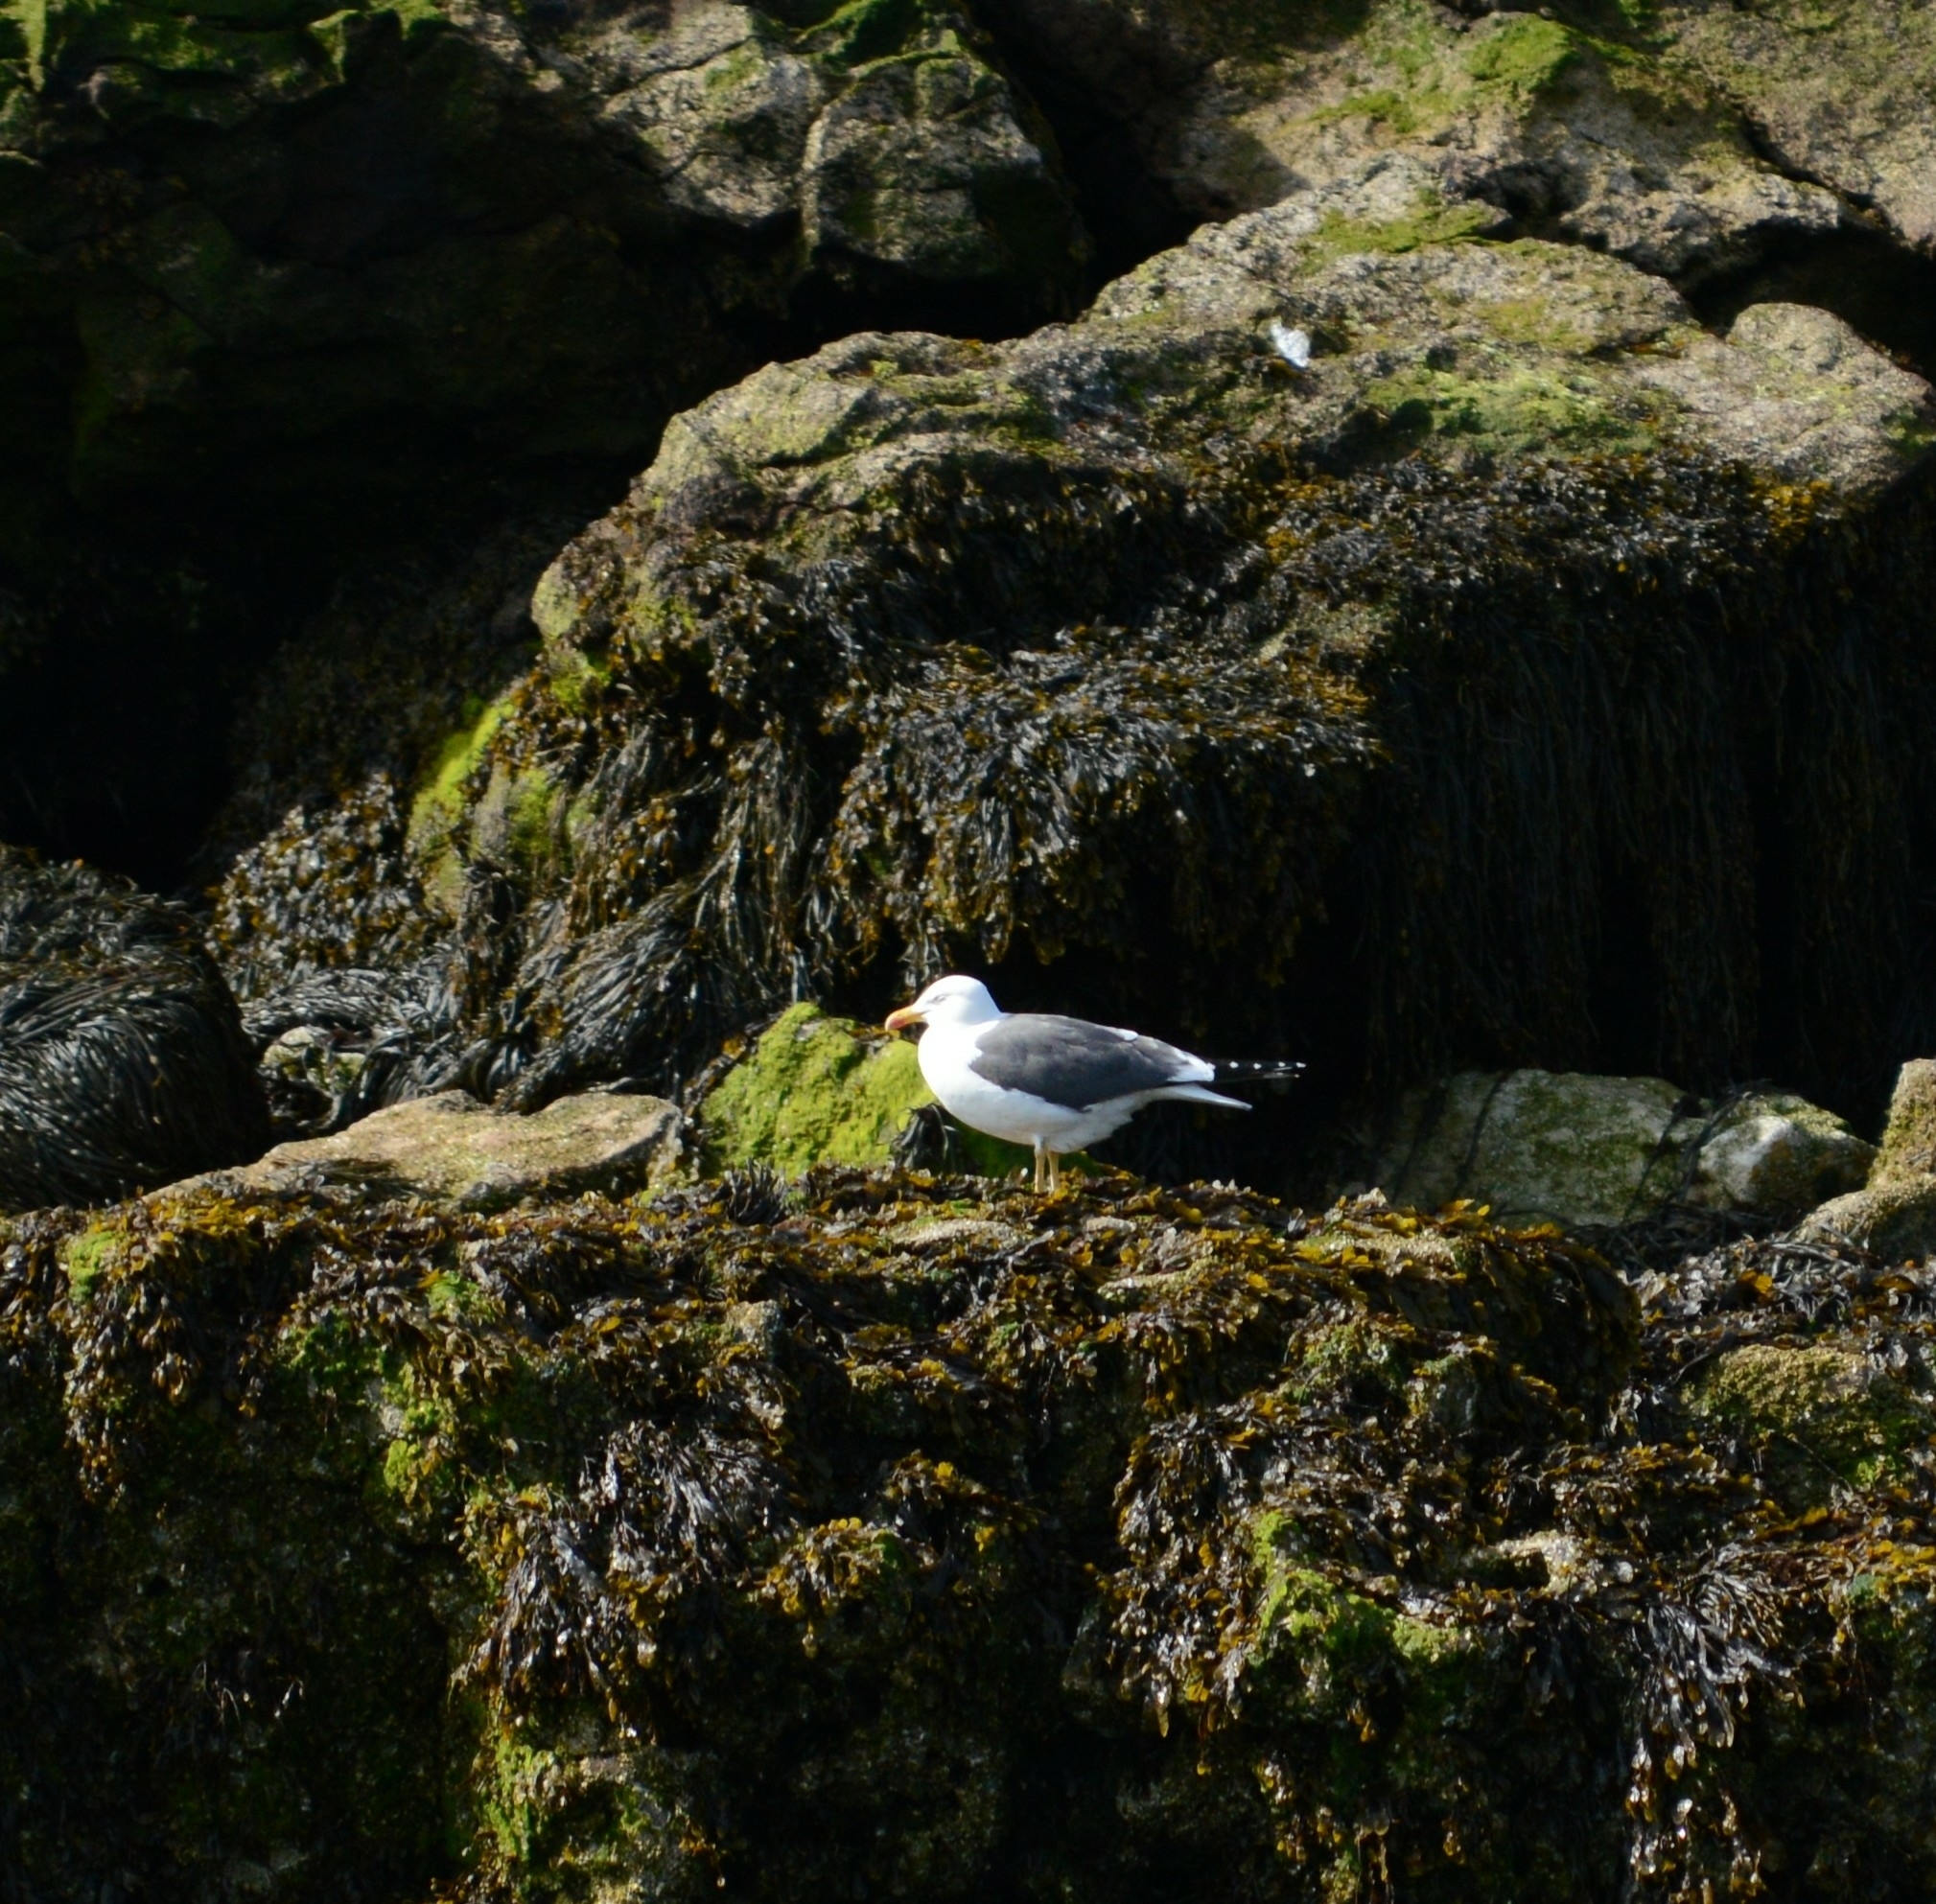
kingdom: Animalia
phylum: Chordata
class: Aves
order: Charadriiformes
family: Laridae
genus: Larus
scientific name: Larus fuscus
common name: Lesser black-backed gull
